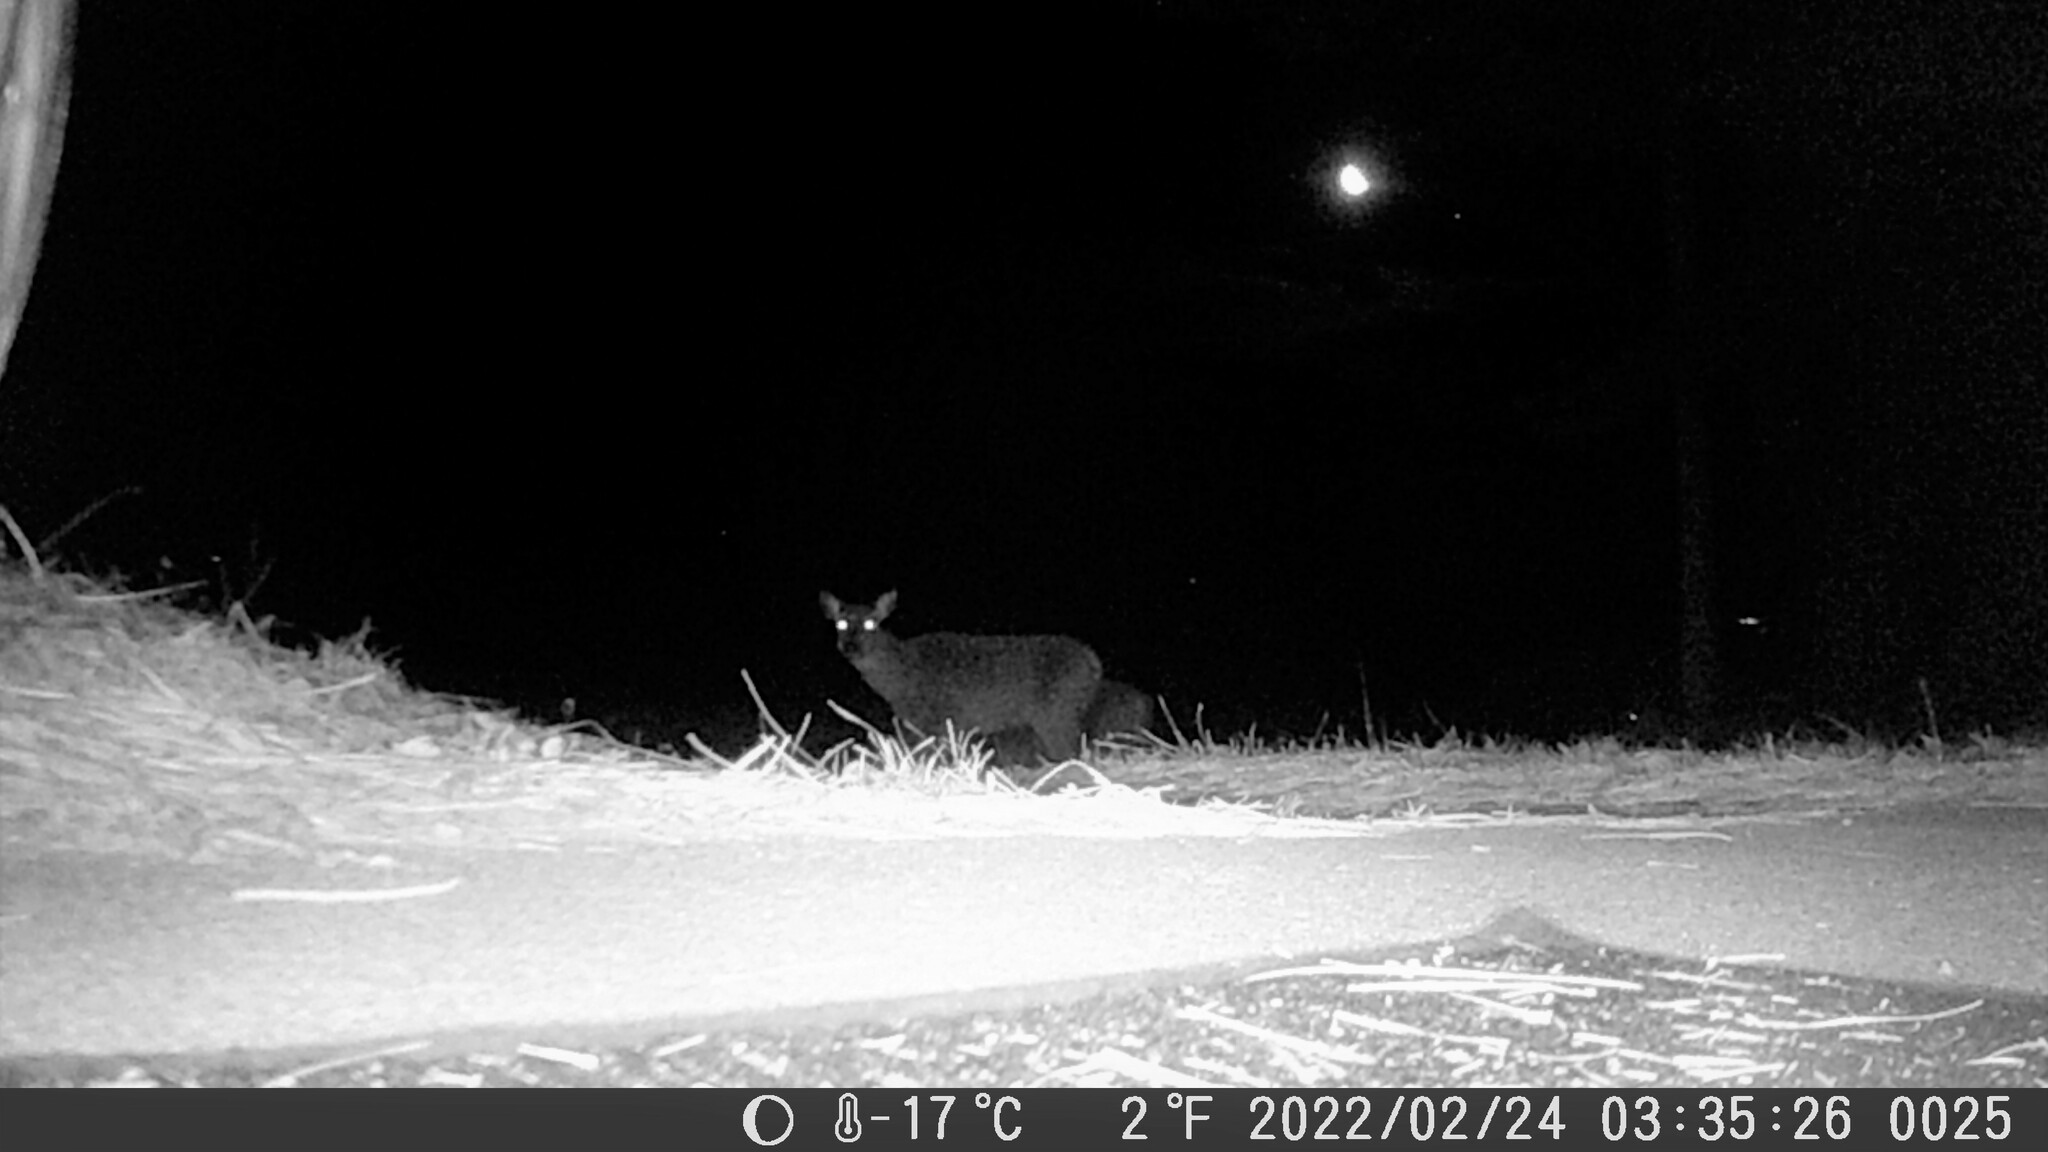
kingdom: Animalia
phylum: Chordata
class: Mammalia
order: Artiodactyla
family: Cervidae
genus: Odocoileus
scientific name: Odocoileus virginianus
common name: White-tailed deer
